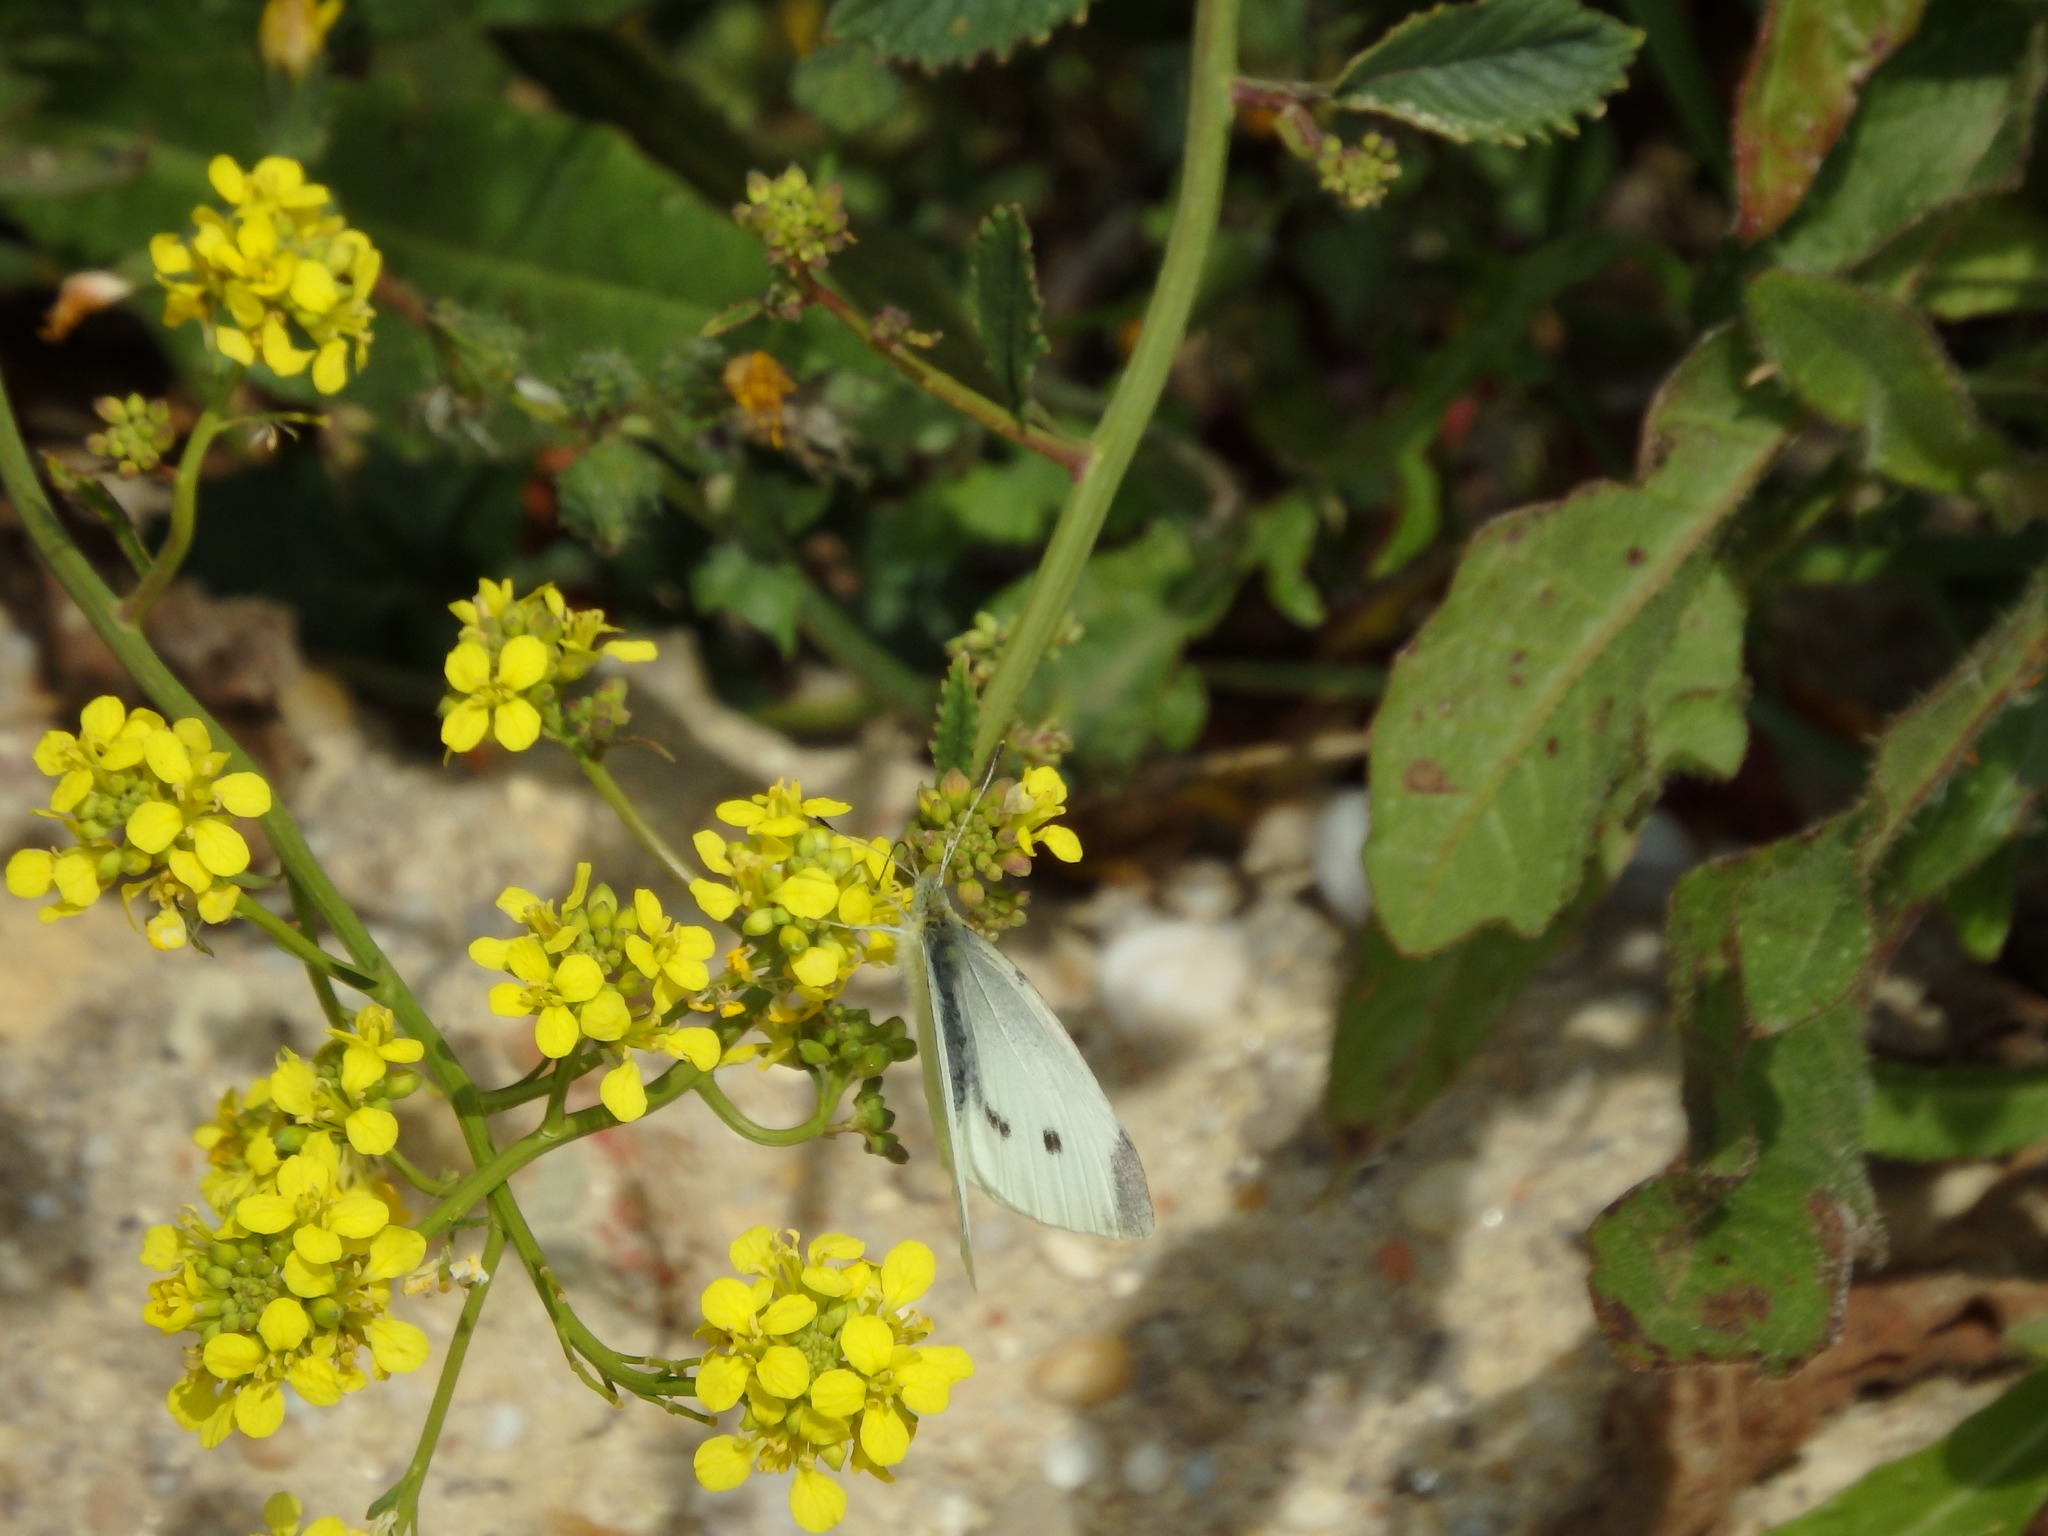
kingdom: Animalia
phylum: Arthropoda
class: Insecta
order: Lepidoptera
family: Pieridae
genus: Pieris
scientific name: Pieris rapae
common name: Small white
